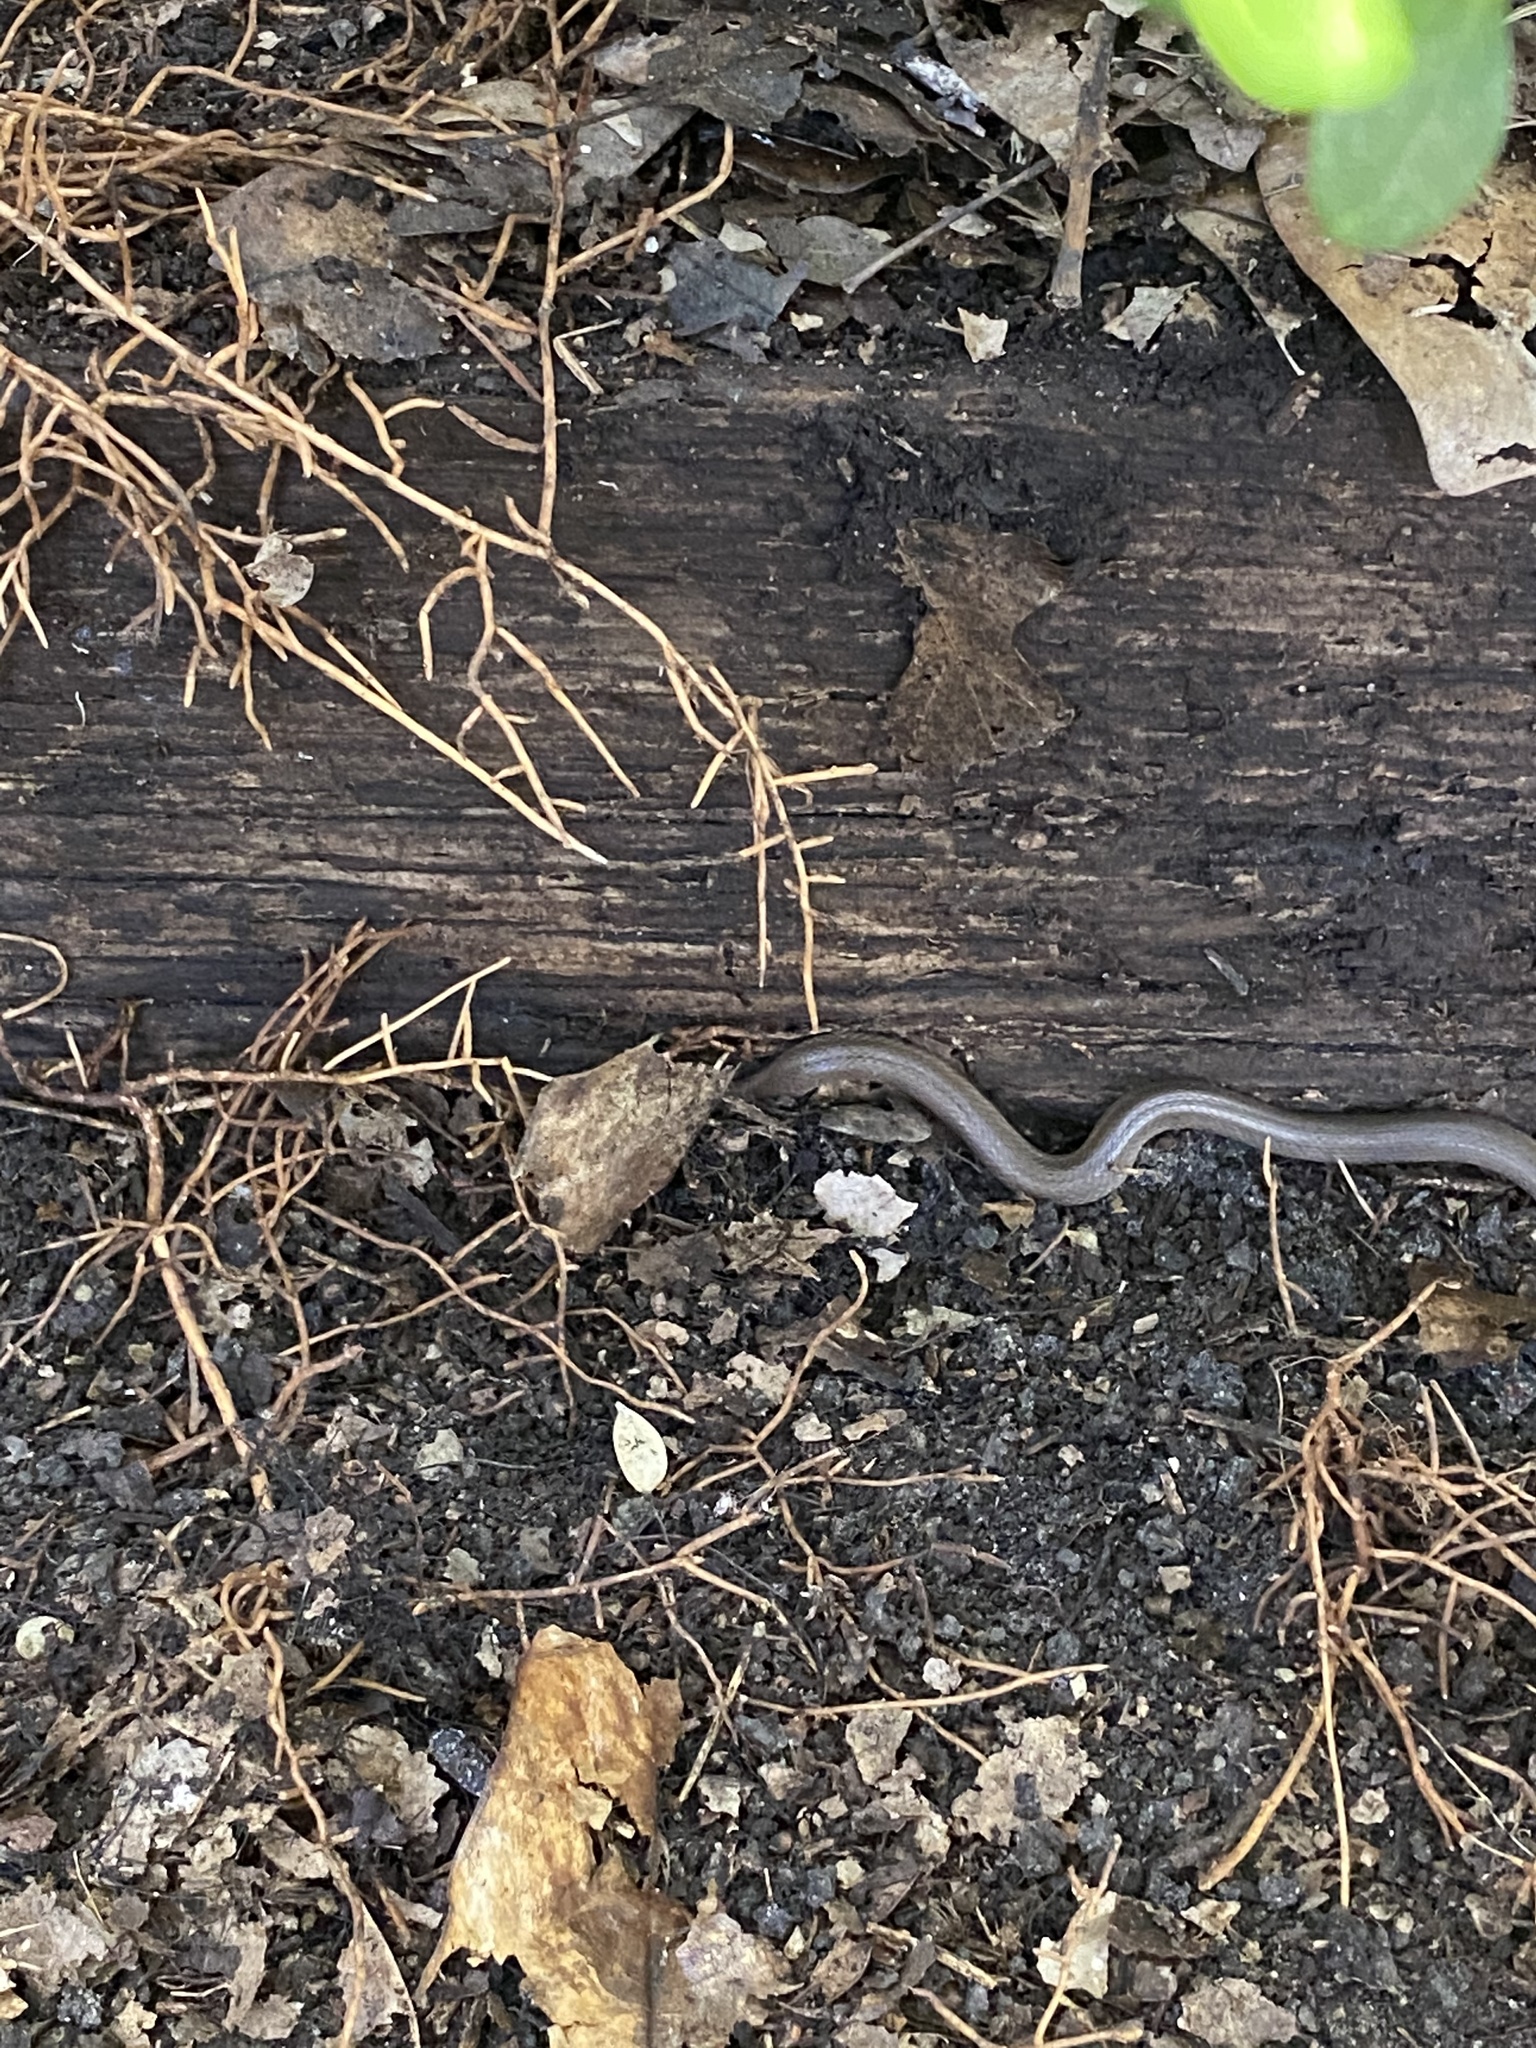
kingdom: Animalia
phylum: Chordata
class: Squamata
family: Colubridae
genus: Haldea
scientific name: Haldea striatula
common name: Rough earth snake
